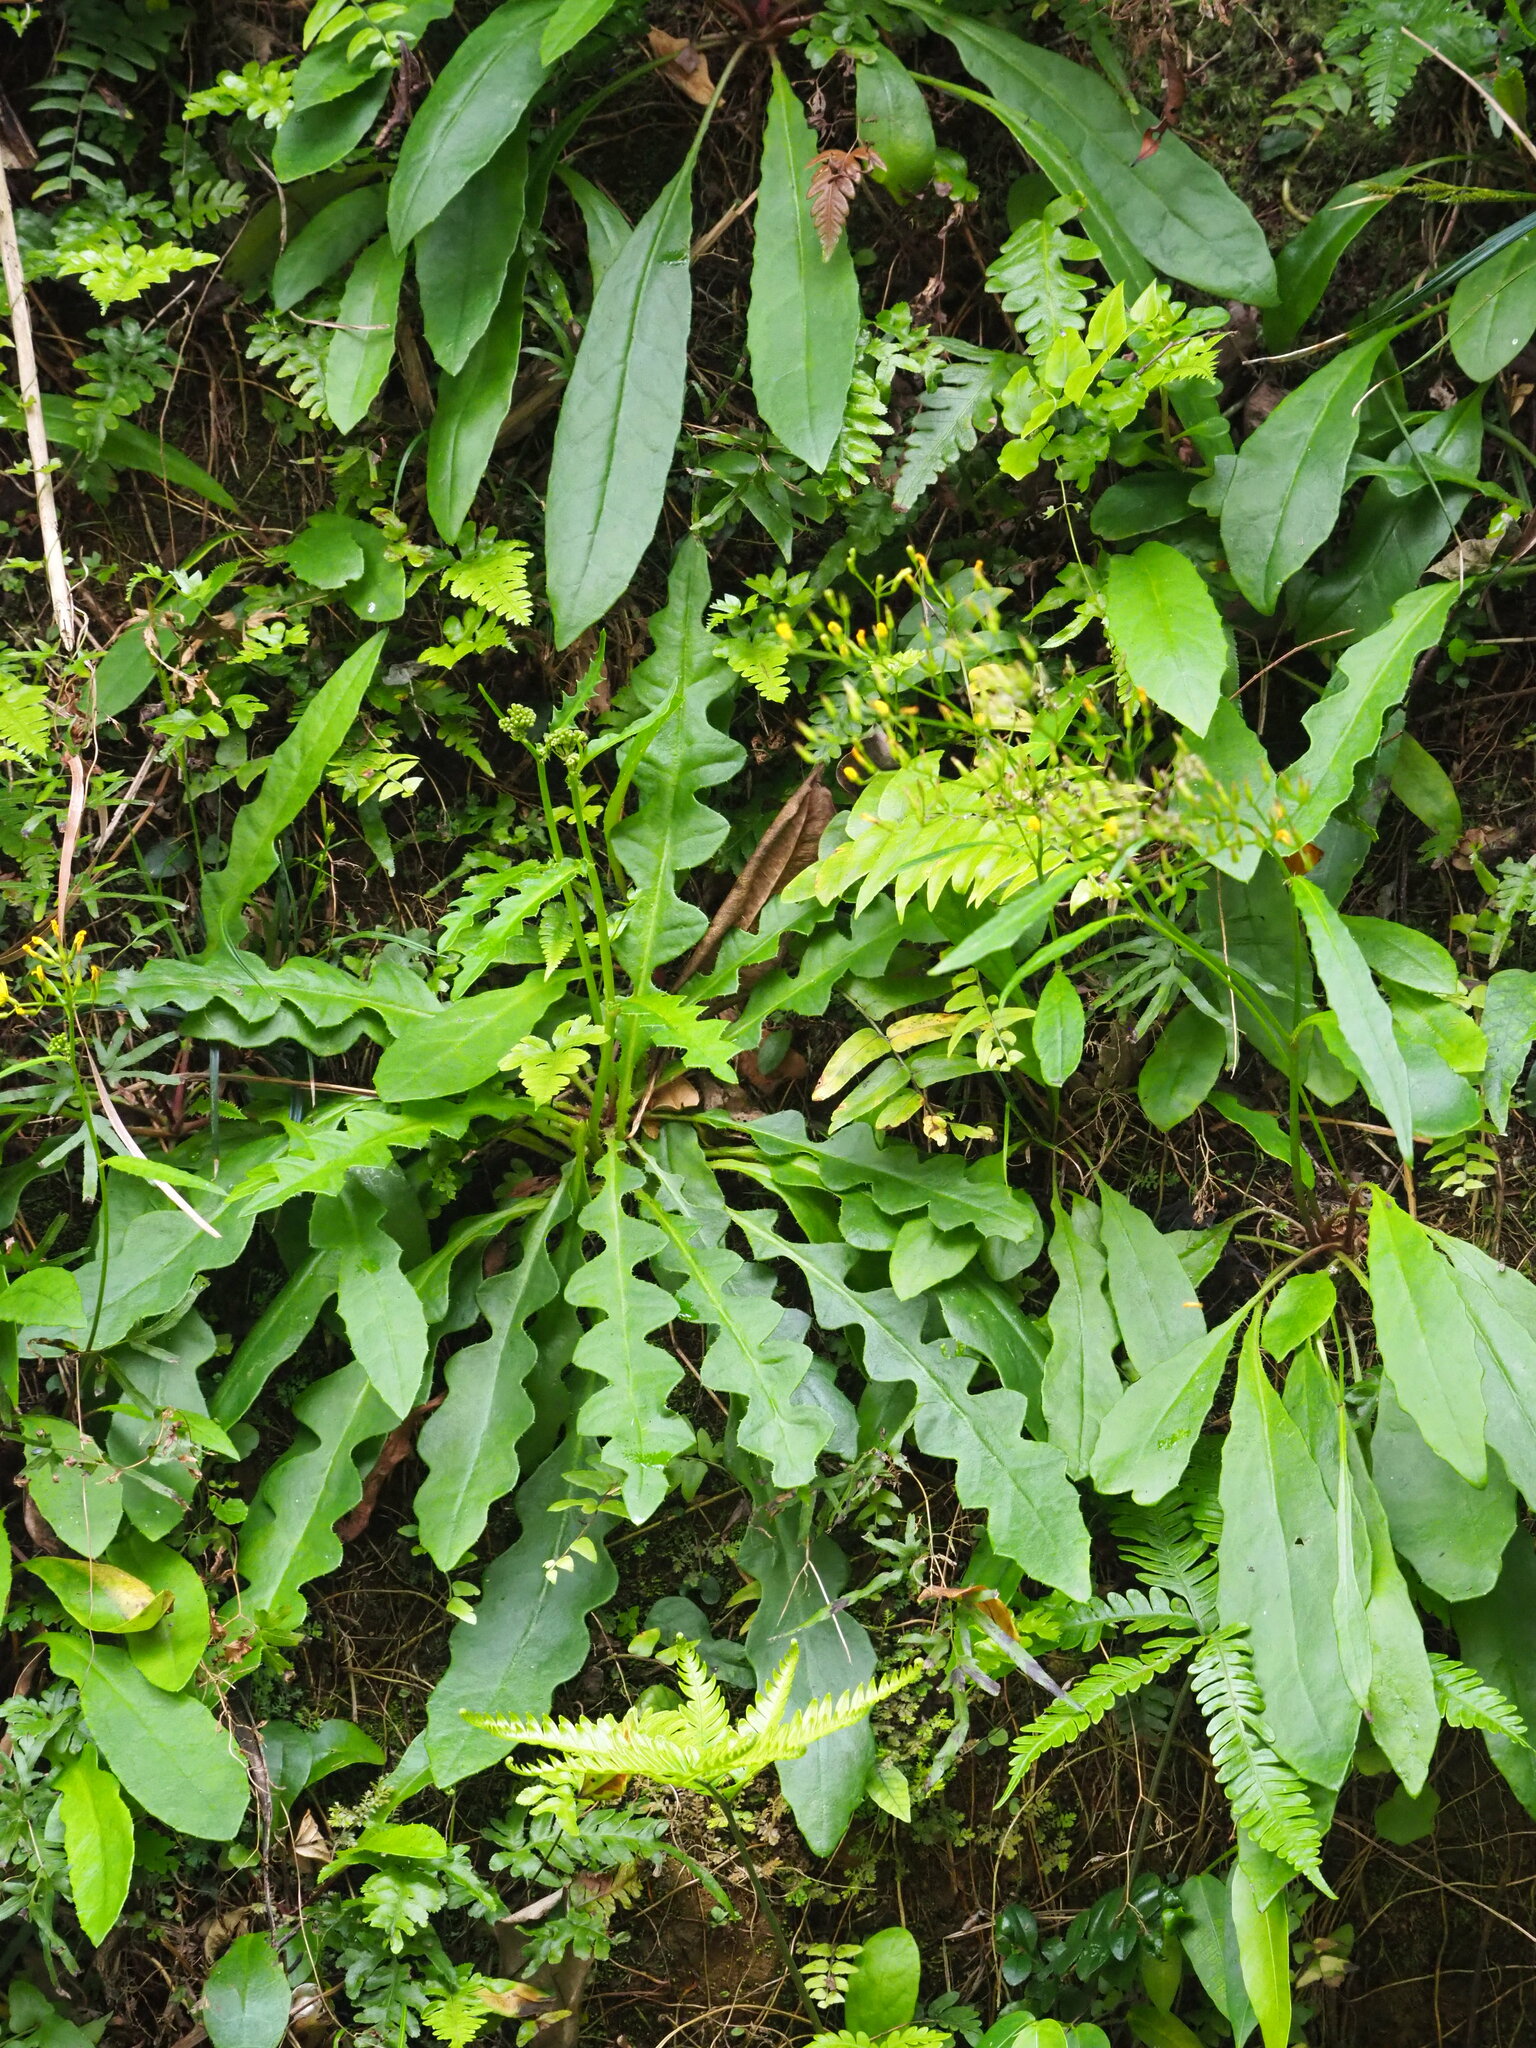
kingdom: Plantae
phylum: Tracheophyta
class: Magnoliopsida
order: Asterales
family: Asteraceae
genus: Ixeridium
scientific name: Ixeridium laevigatum
